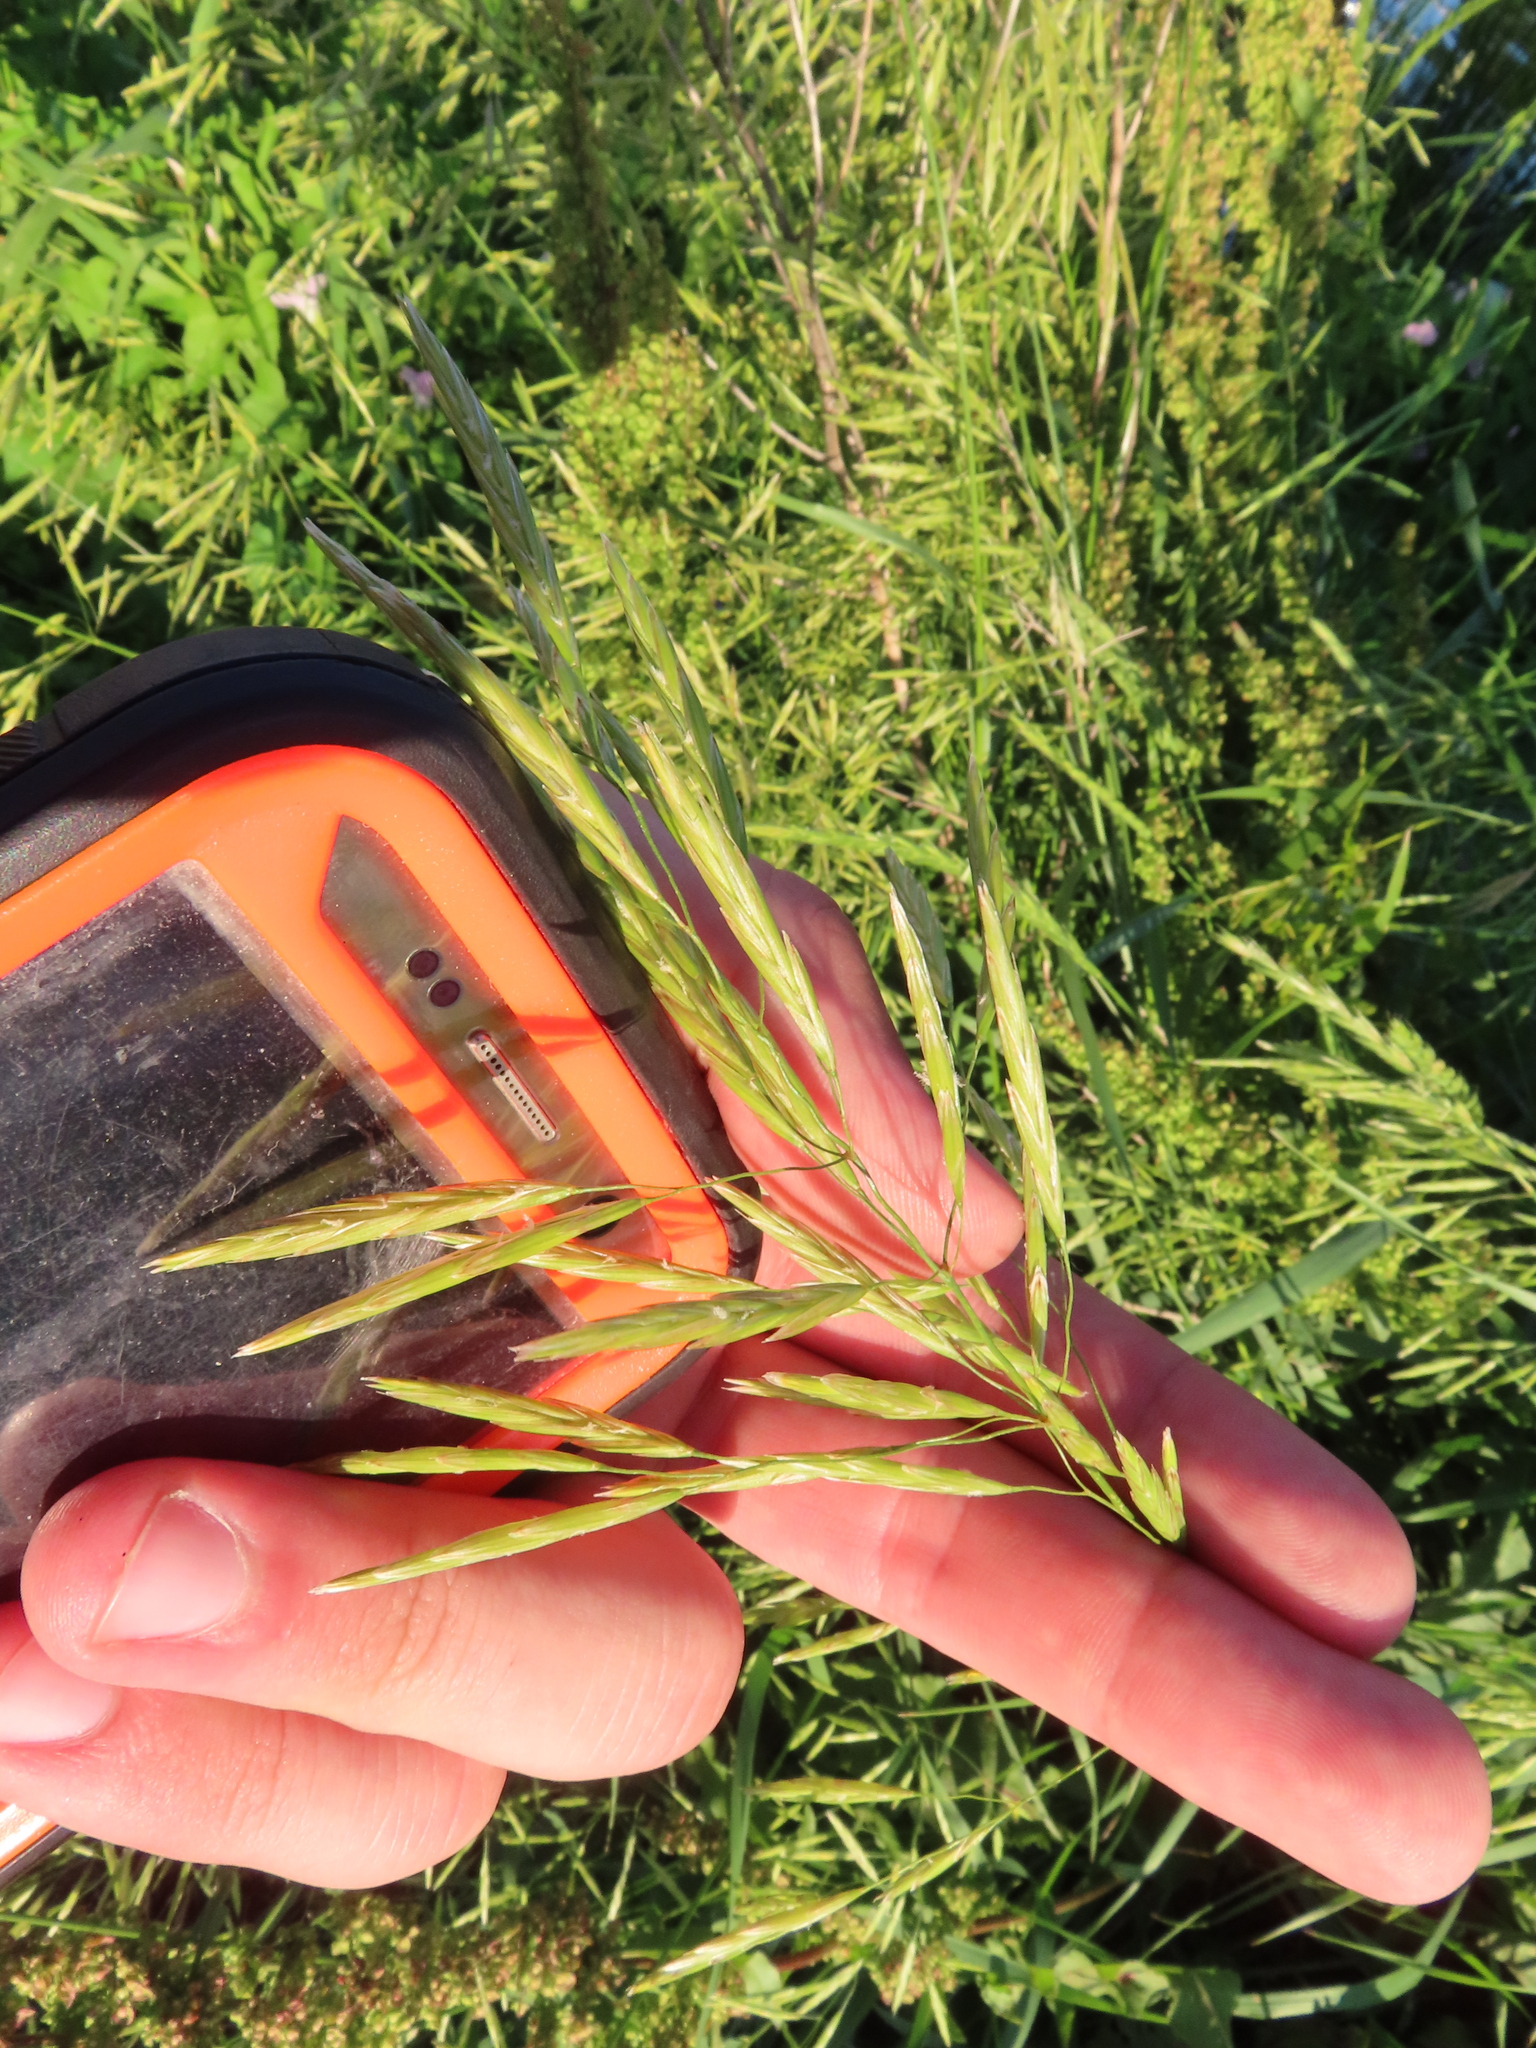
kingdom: Plantae
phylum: Tracheophyta
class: Liliopsida
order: Poales
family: Poaceae
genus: Bromus
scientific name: Bromus inermis
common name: Smooth brome
